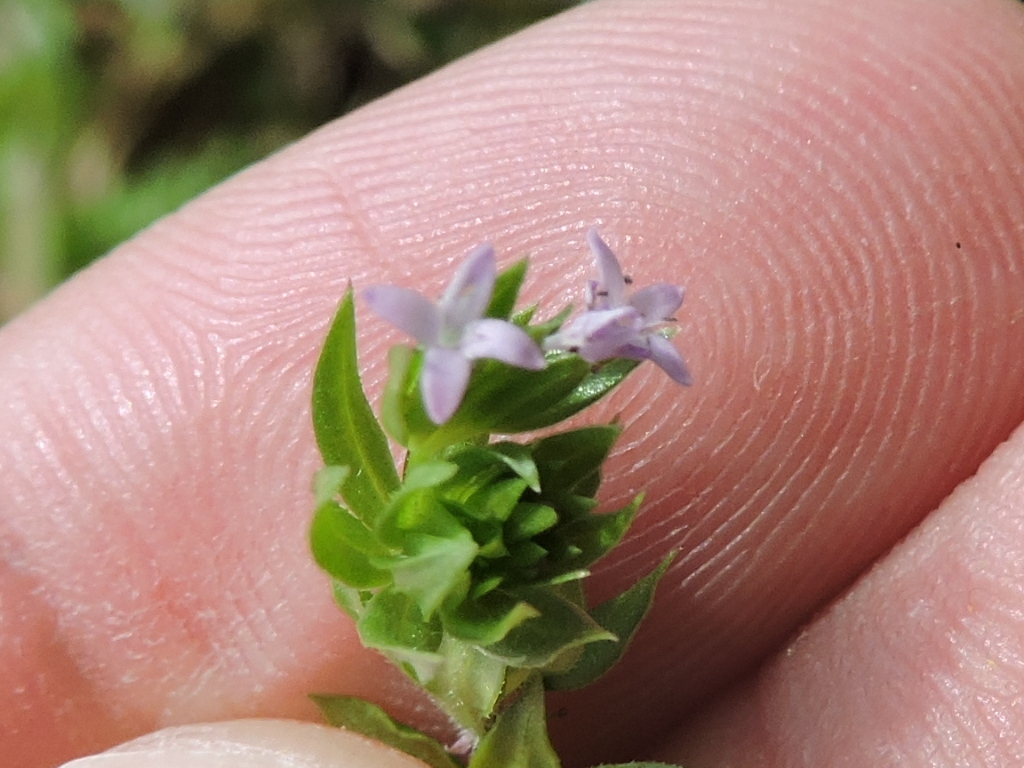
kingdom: Plantae
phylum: Tracheophyta
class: Magnoliopsida
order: Gentianales
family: Rubiaceae
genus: Sherardia
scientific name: Sherardia arvensis
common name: Field madder
